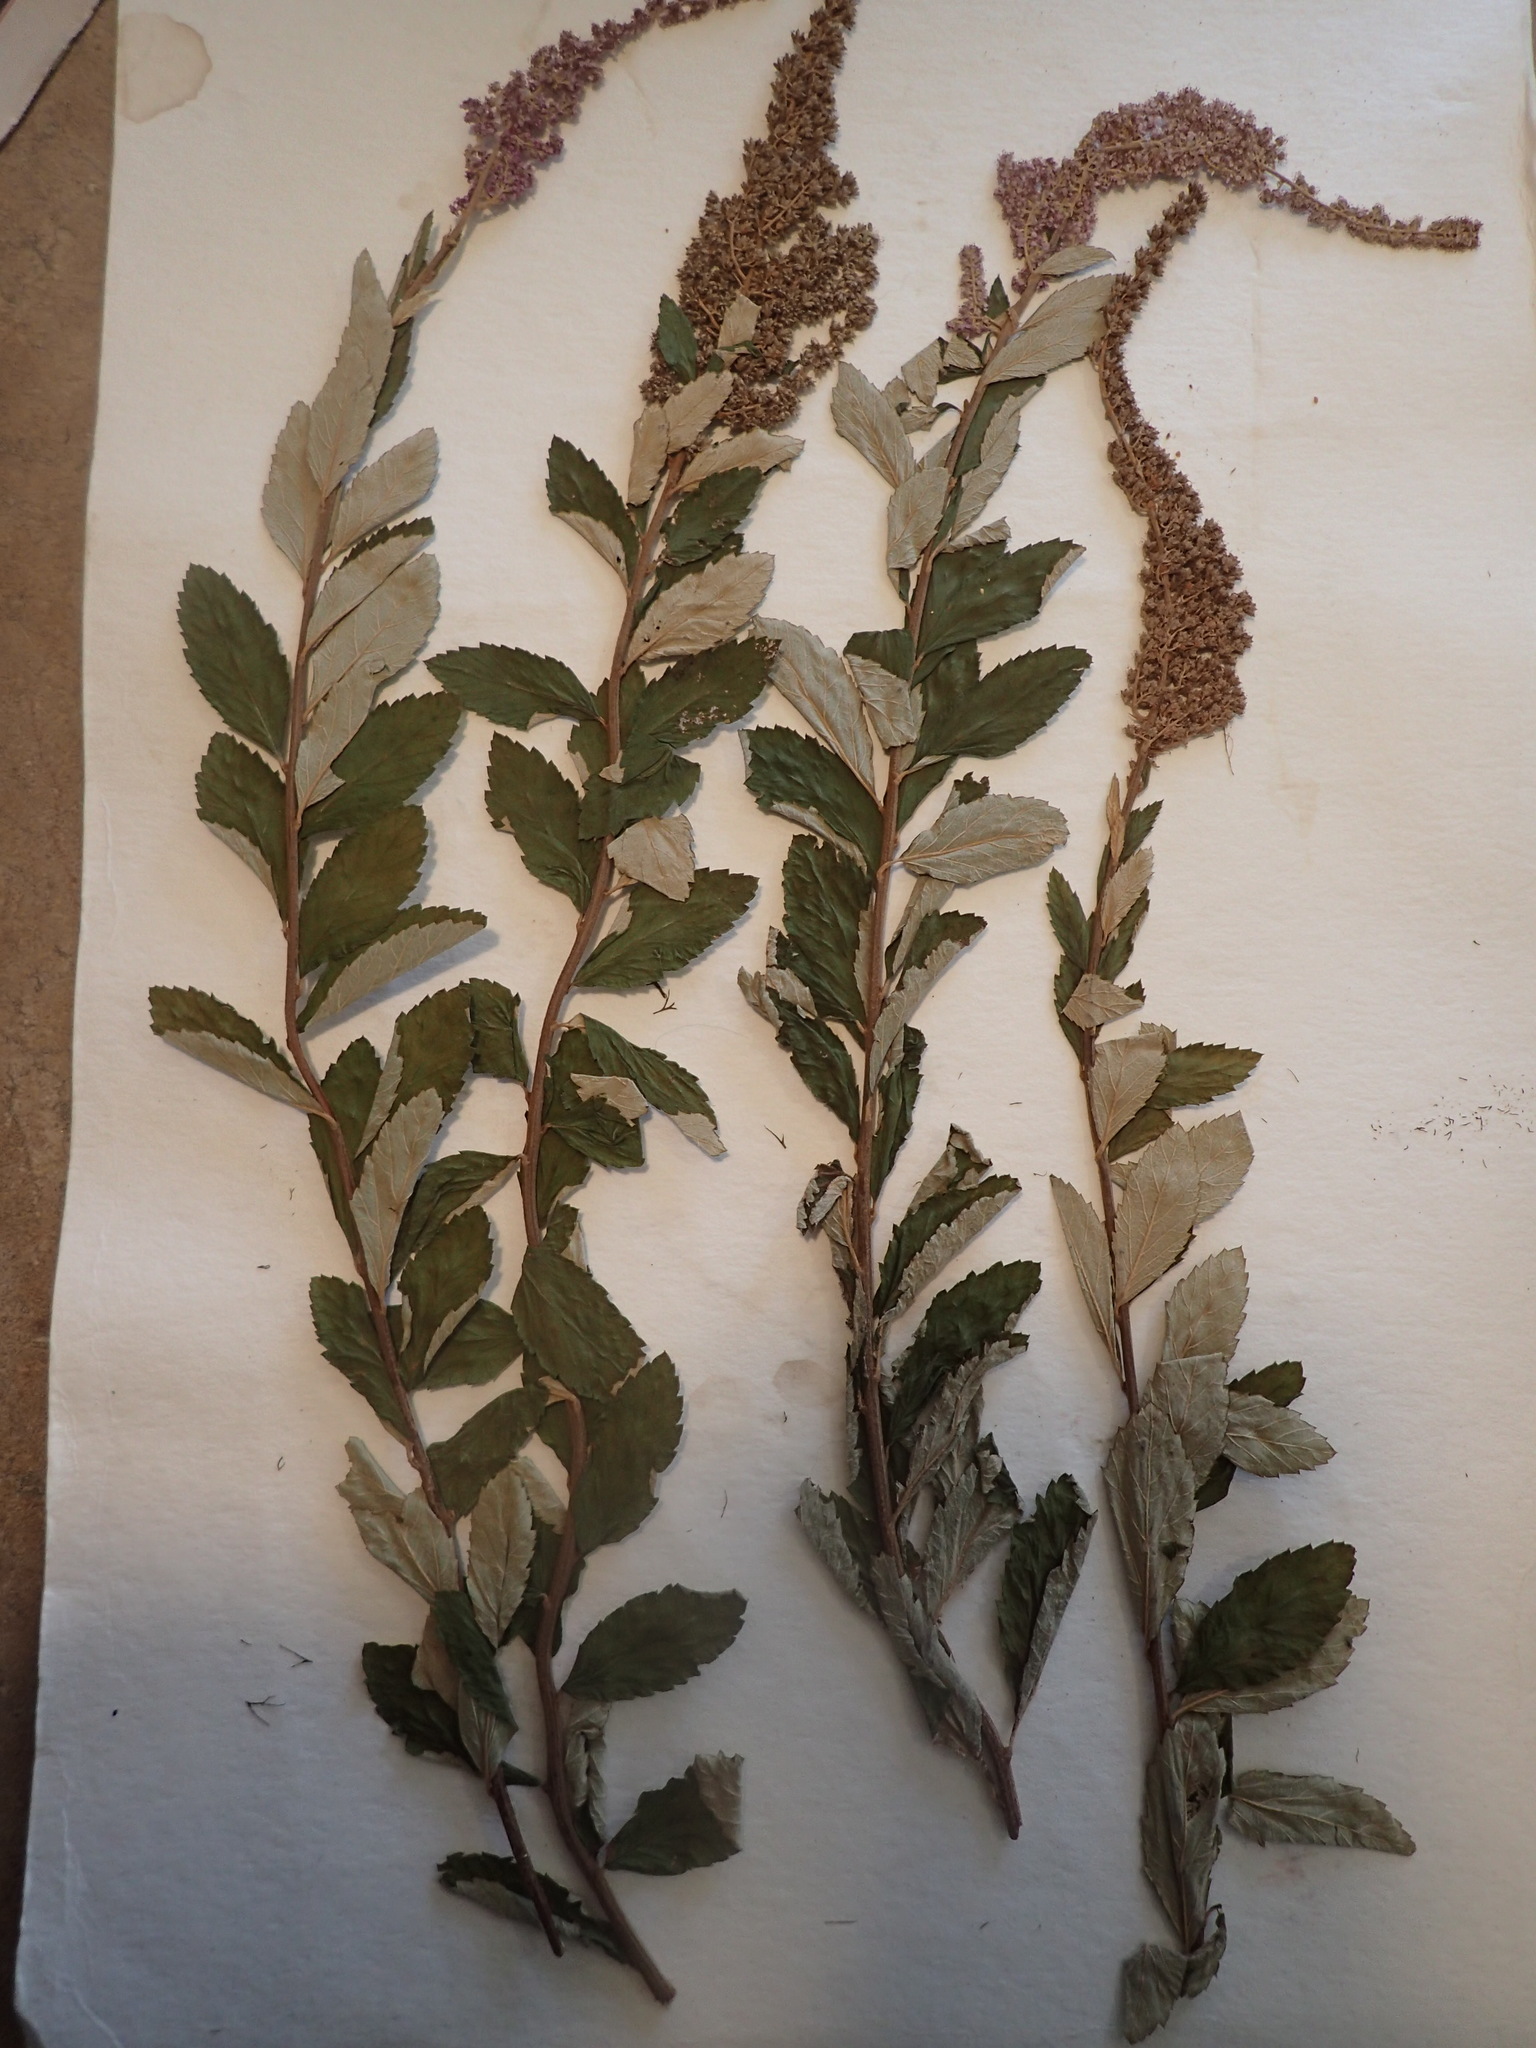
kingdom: Plantae
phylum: Tracheophyta
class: Magnoliopsida
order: Rosales
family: Rosaceae
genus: Spiraea
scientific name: Spiraea tomentosa
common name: Hardhack
